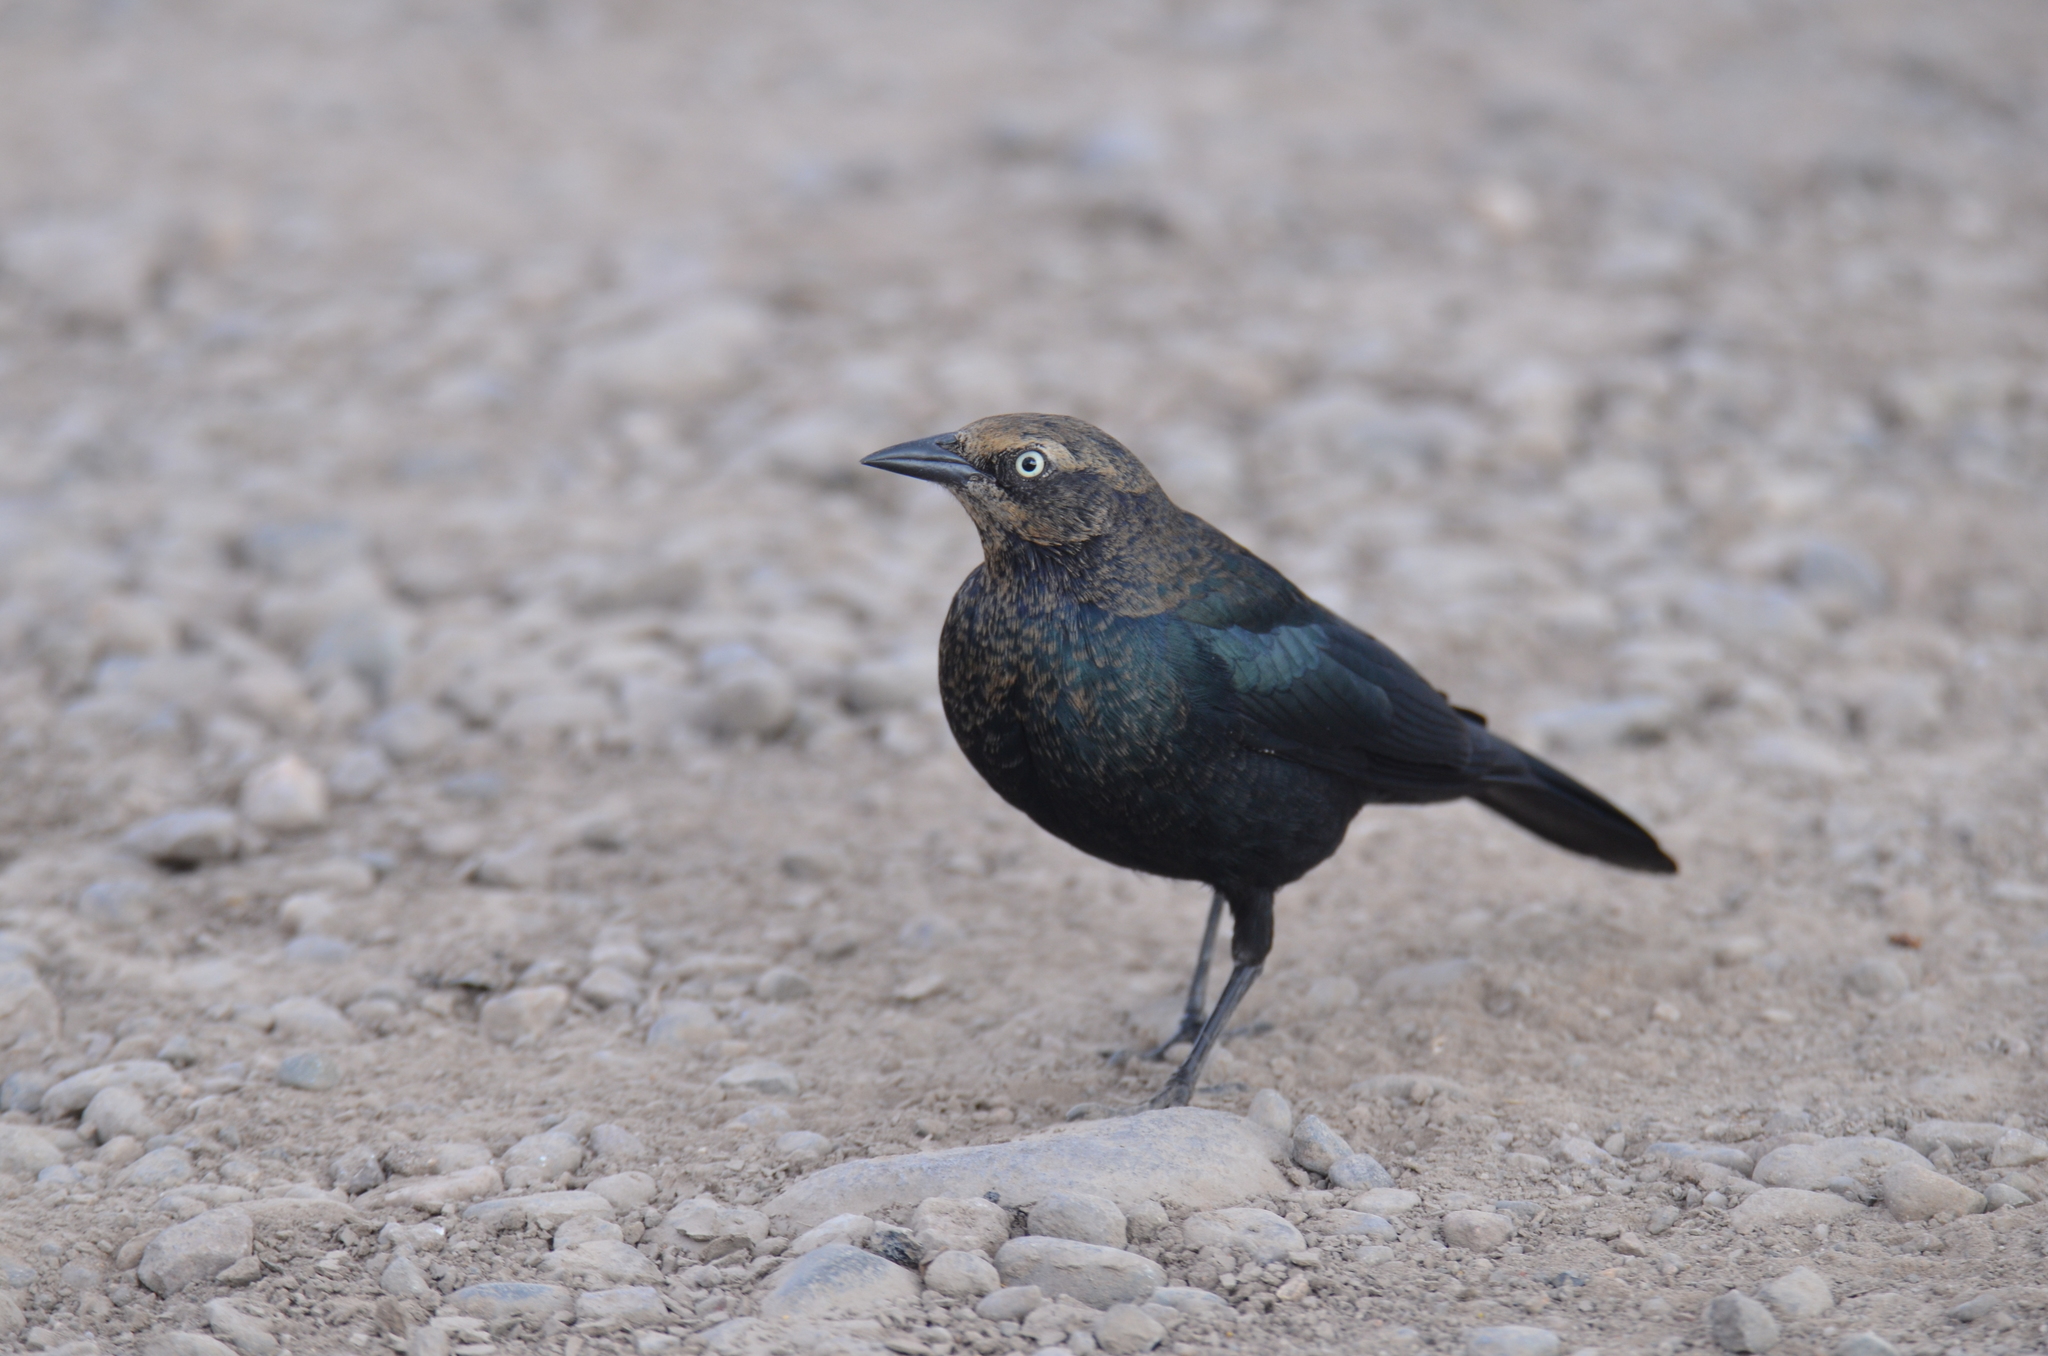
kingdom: Animalia
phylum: Chordata
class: Aves
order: Passeriformes
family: Icteridae
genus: Euphagus
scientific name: Euphagus cyanocephalus
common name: Brewer's blackbird
